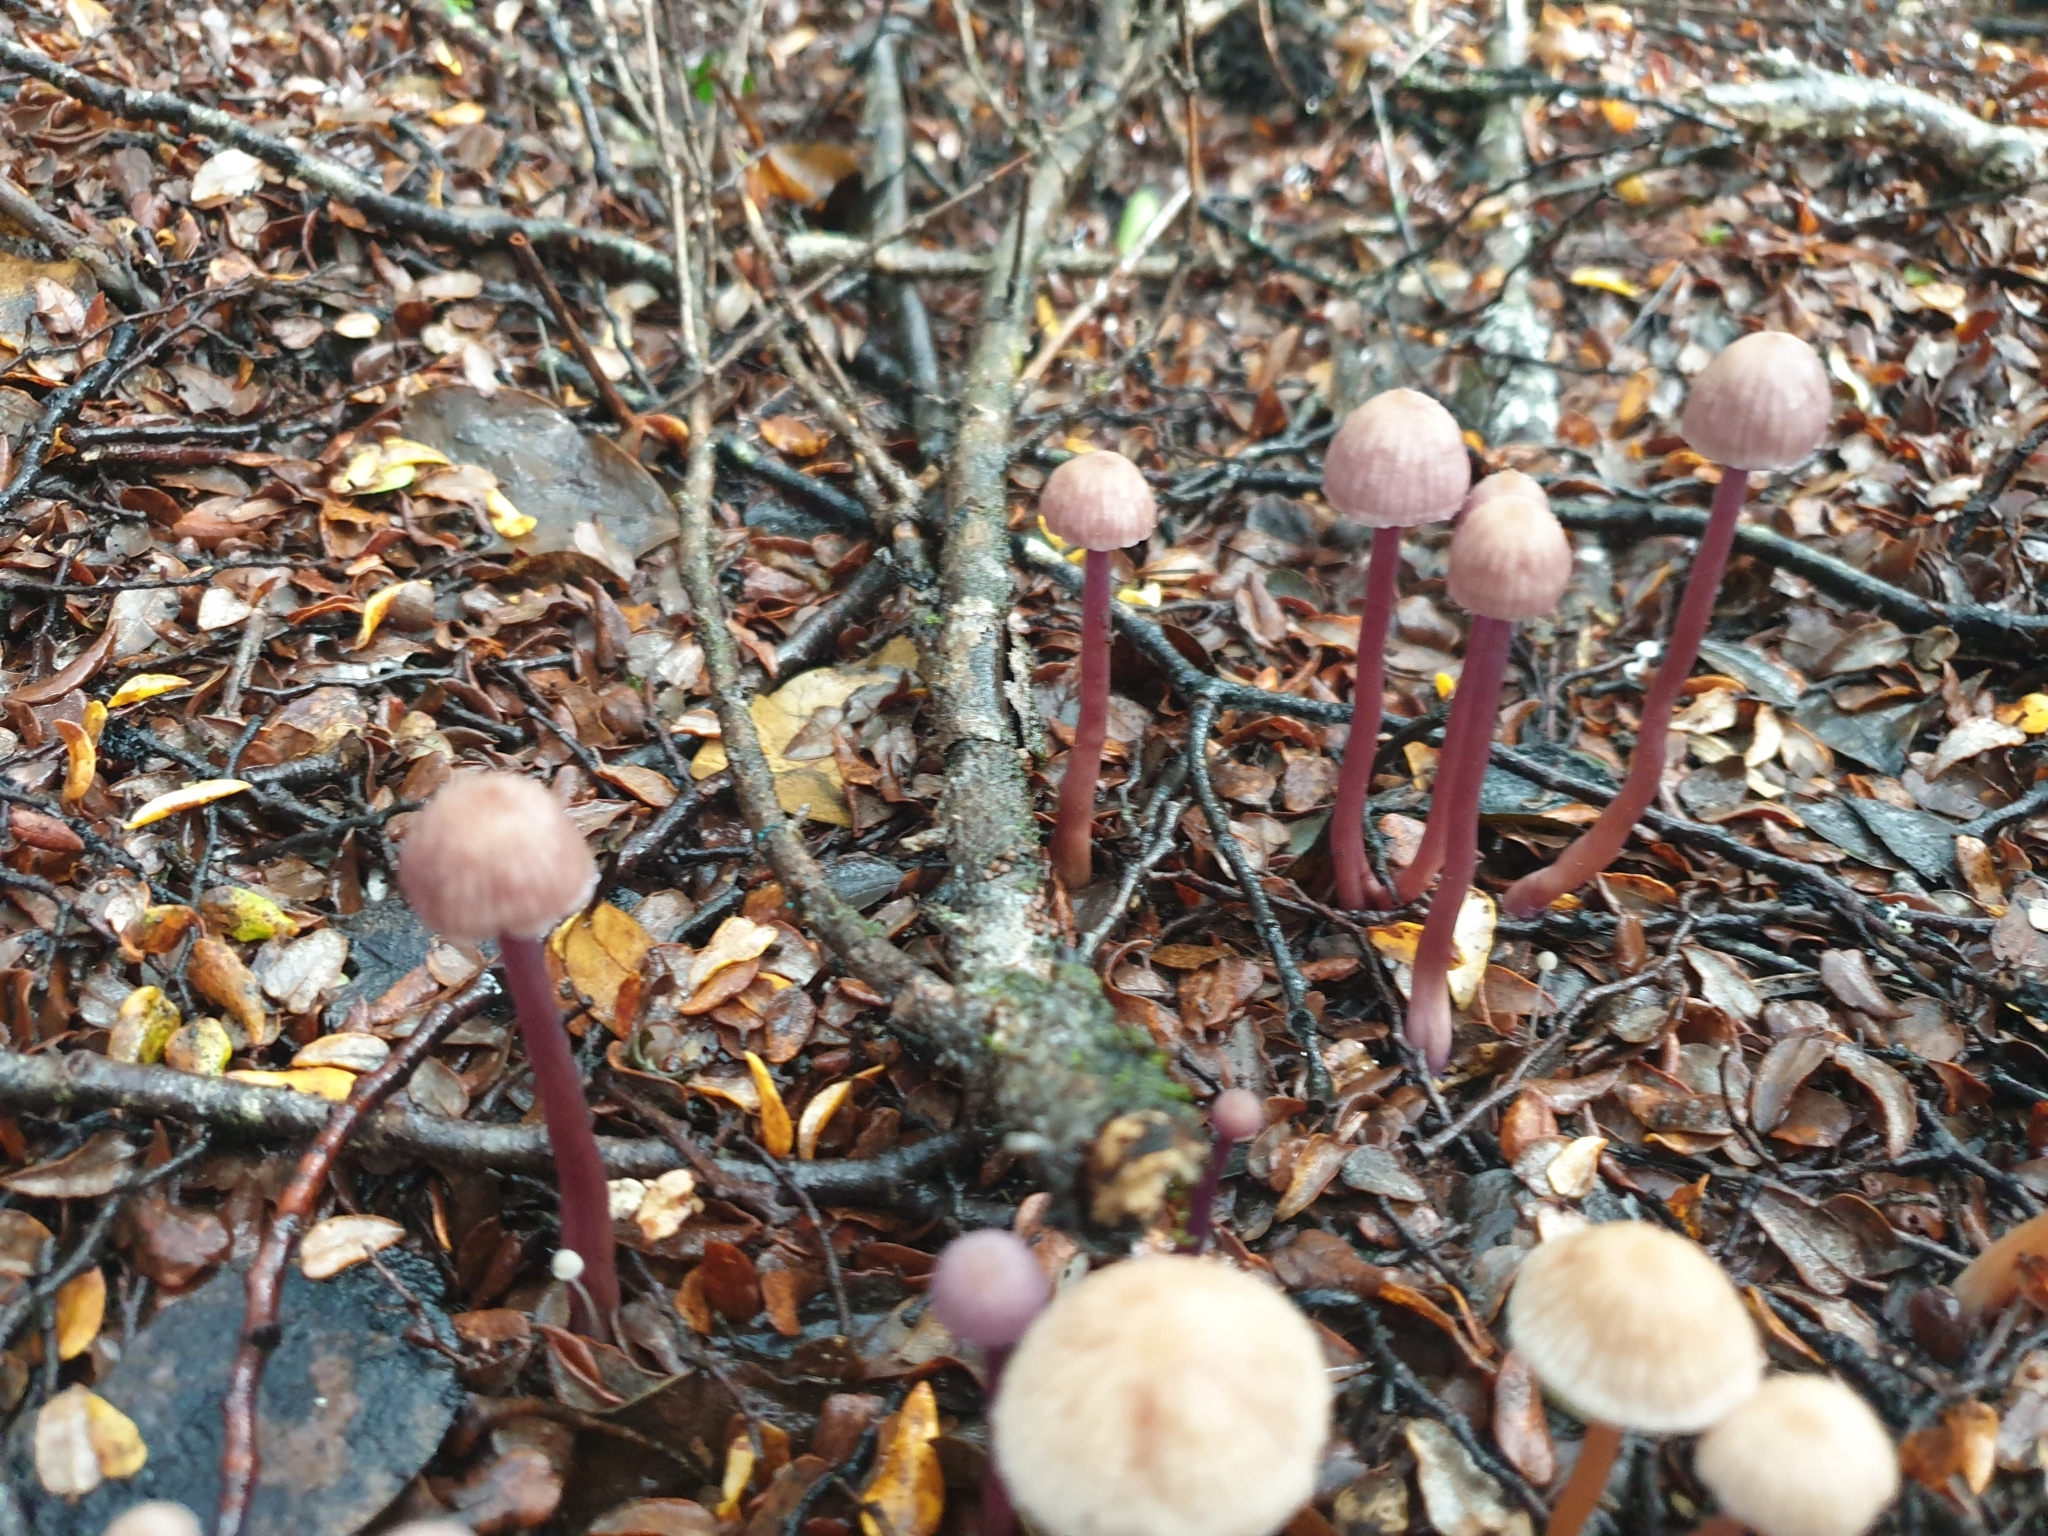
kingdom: Fungi
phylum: Basidiomycota
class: Agaricomycetes
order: Agaricales
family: Hydnangiaceae
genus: Laccaria
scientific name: Laccaria masoniae
